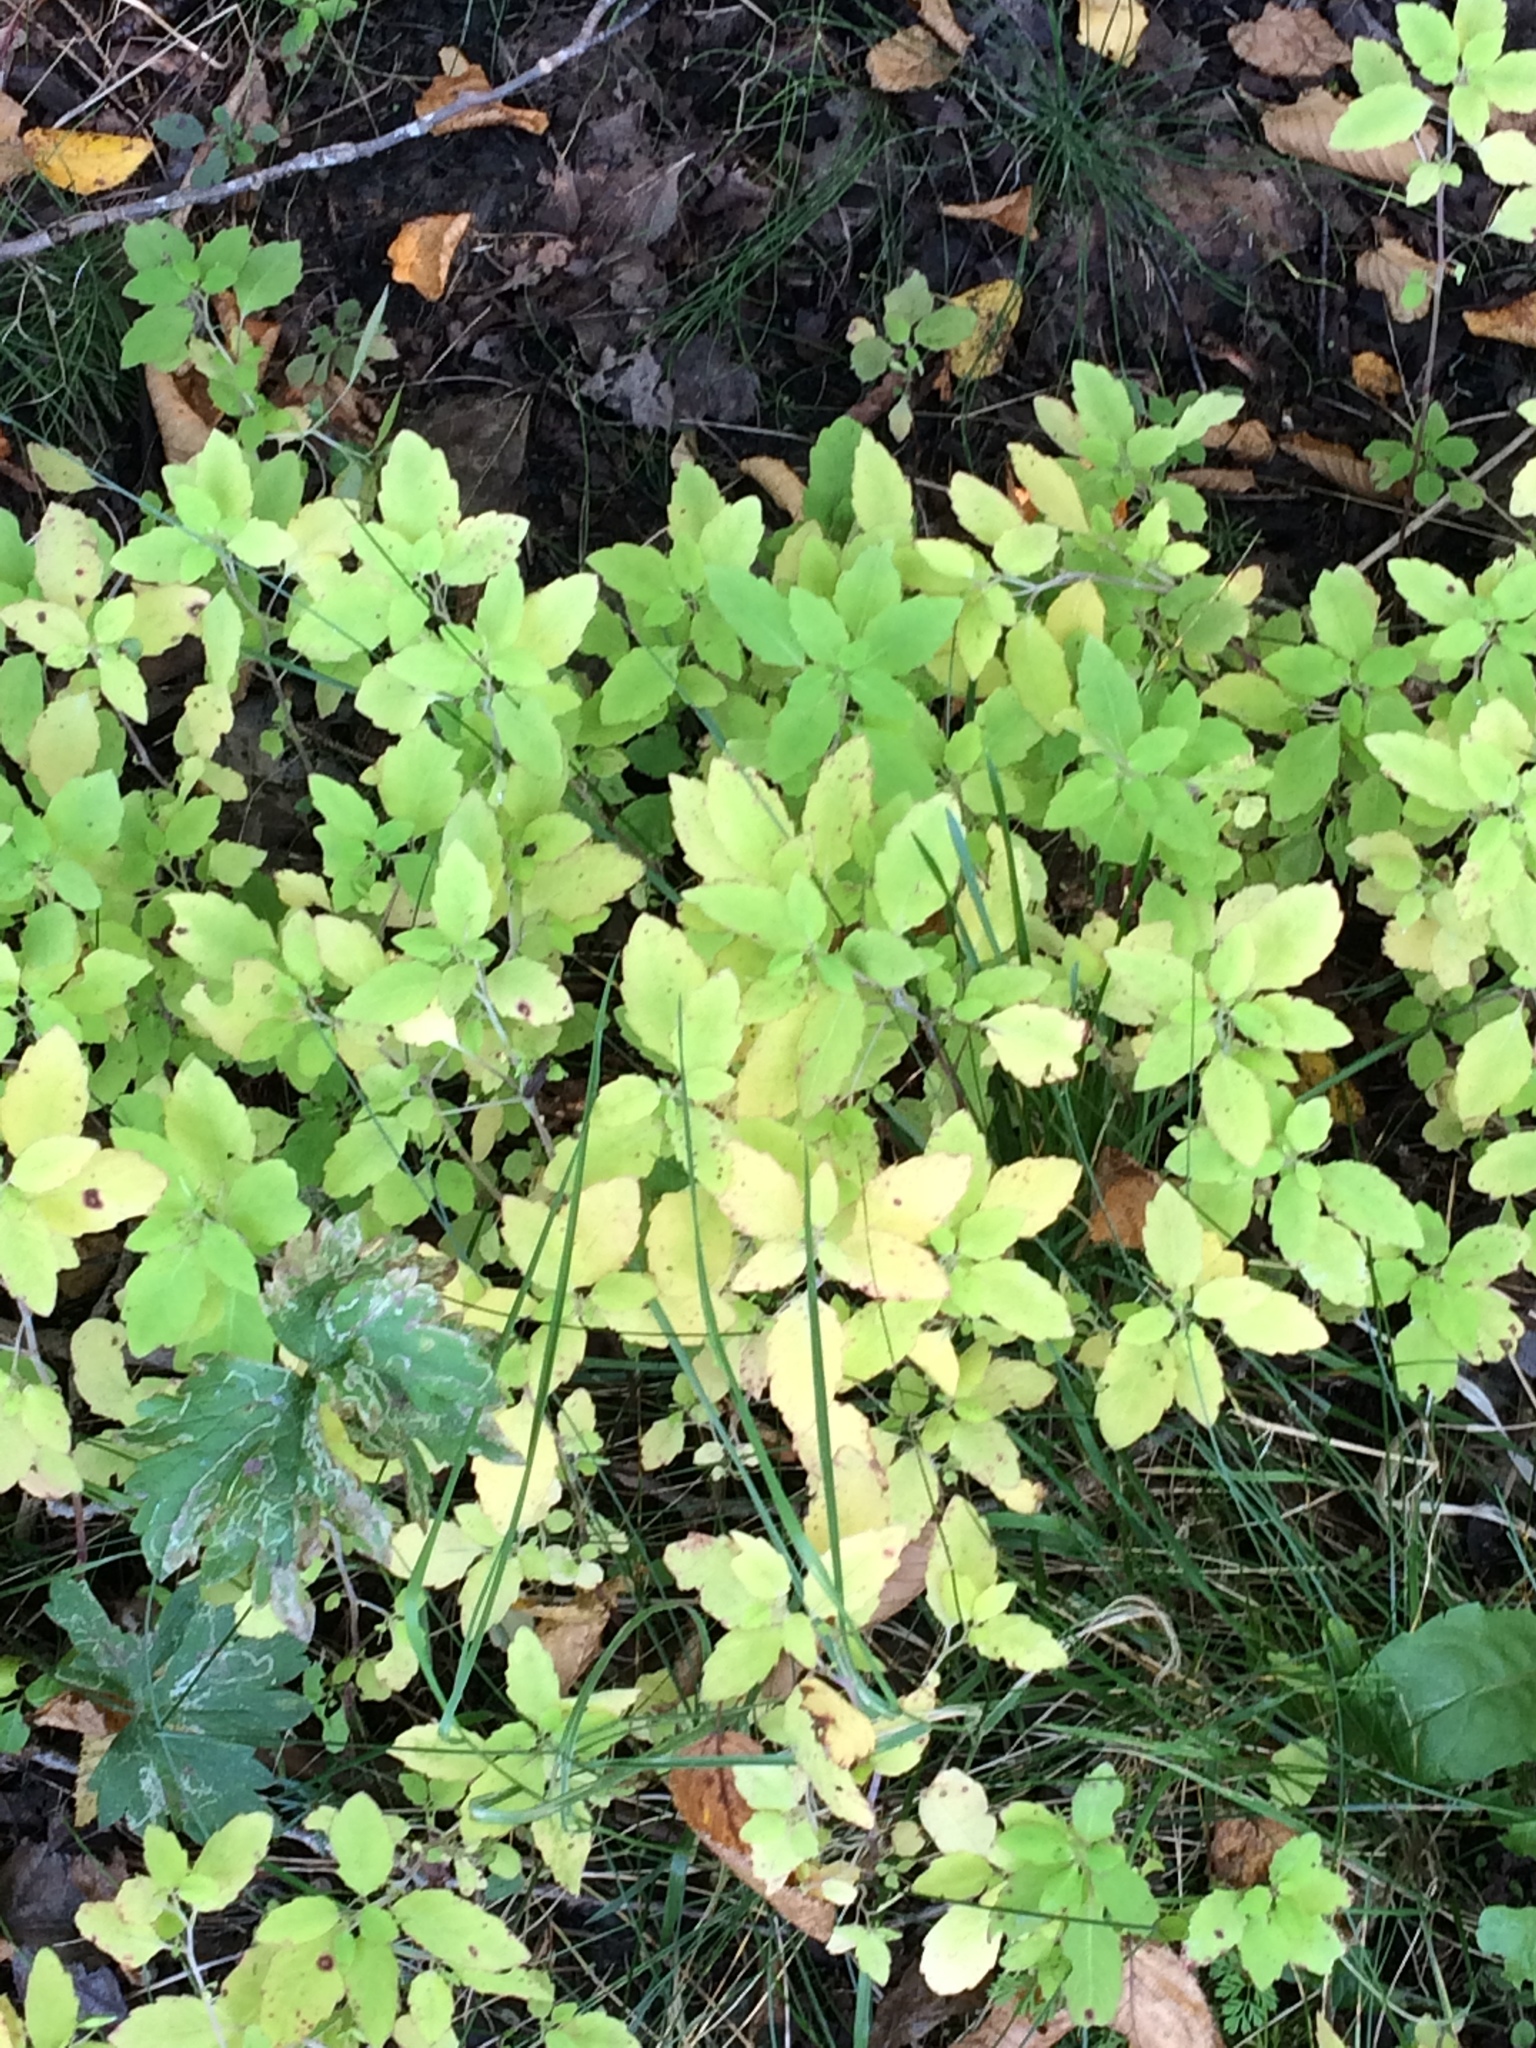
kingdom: Plantae
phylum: Tracheophyta
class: Magnoliopsida
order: Ericales
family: Balsaminaceae
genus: Impatiens
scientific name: Impatiens capensis
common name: Orange balsam
